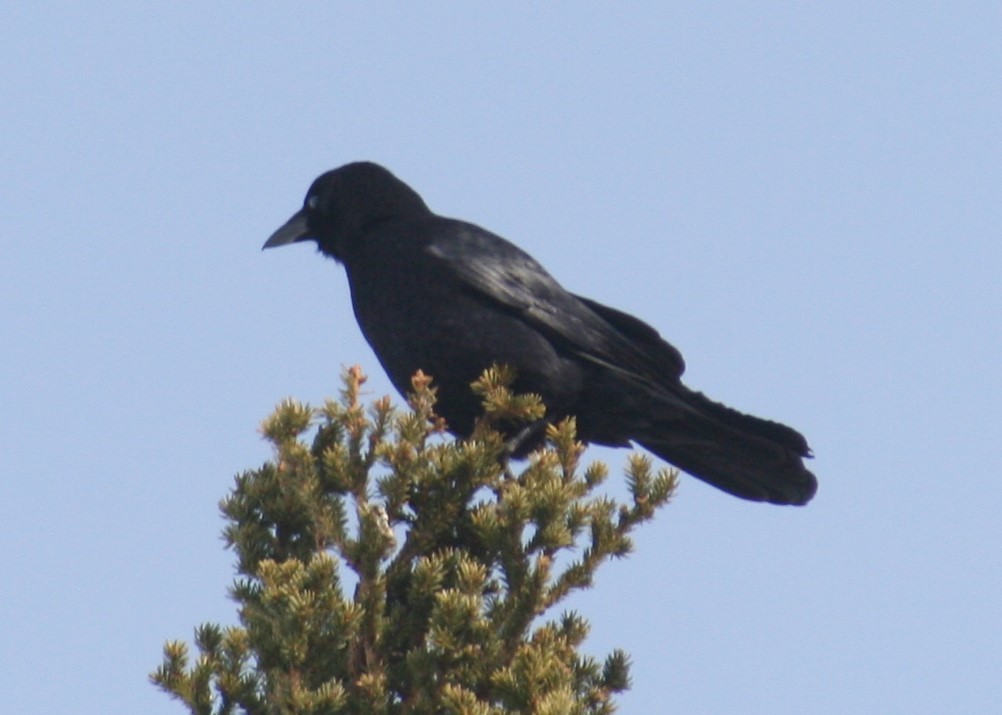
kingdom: Animalia
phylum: Chordata
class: Aves
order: Passeriformes
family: Corvidae
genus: Corvus
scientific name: Corvus brachyrhynchos
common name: American crow
